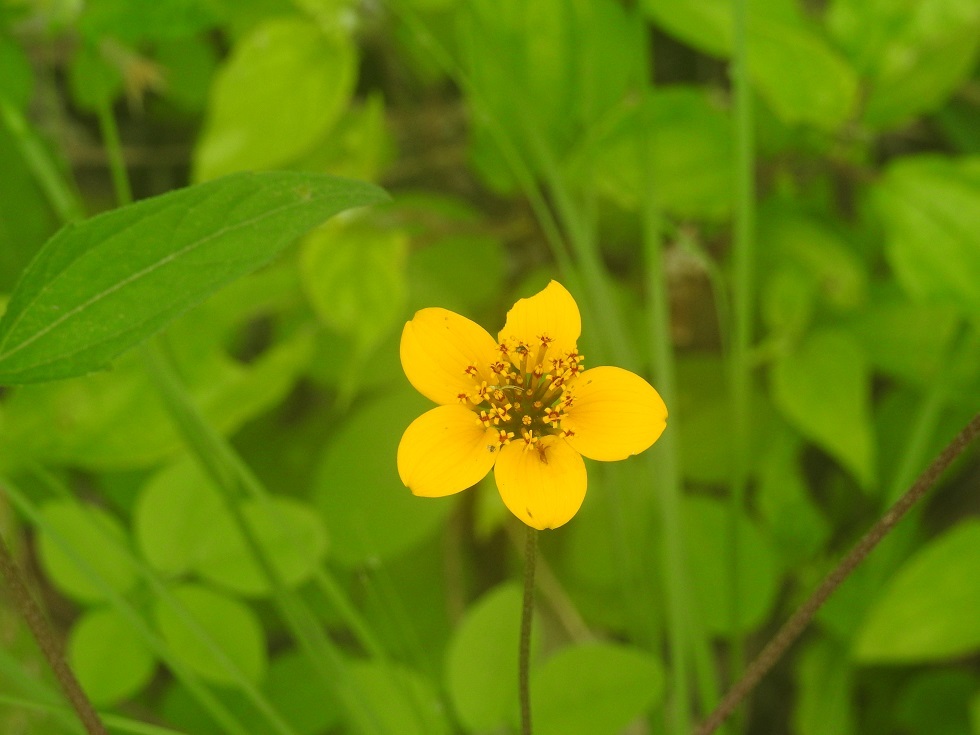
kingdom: Plantae
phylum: Tracheophyta
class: Magnoliopsida
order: Asterales
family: Asteraceae
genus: Sclerocarpus
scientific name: Sclerocarpus divaricatus
